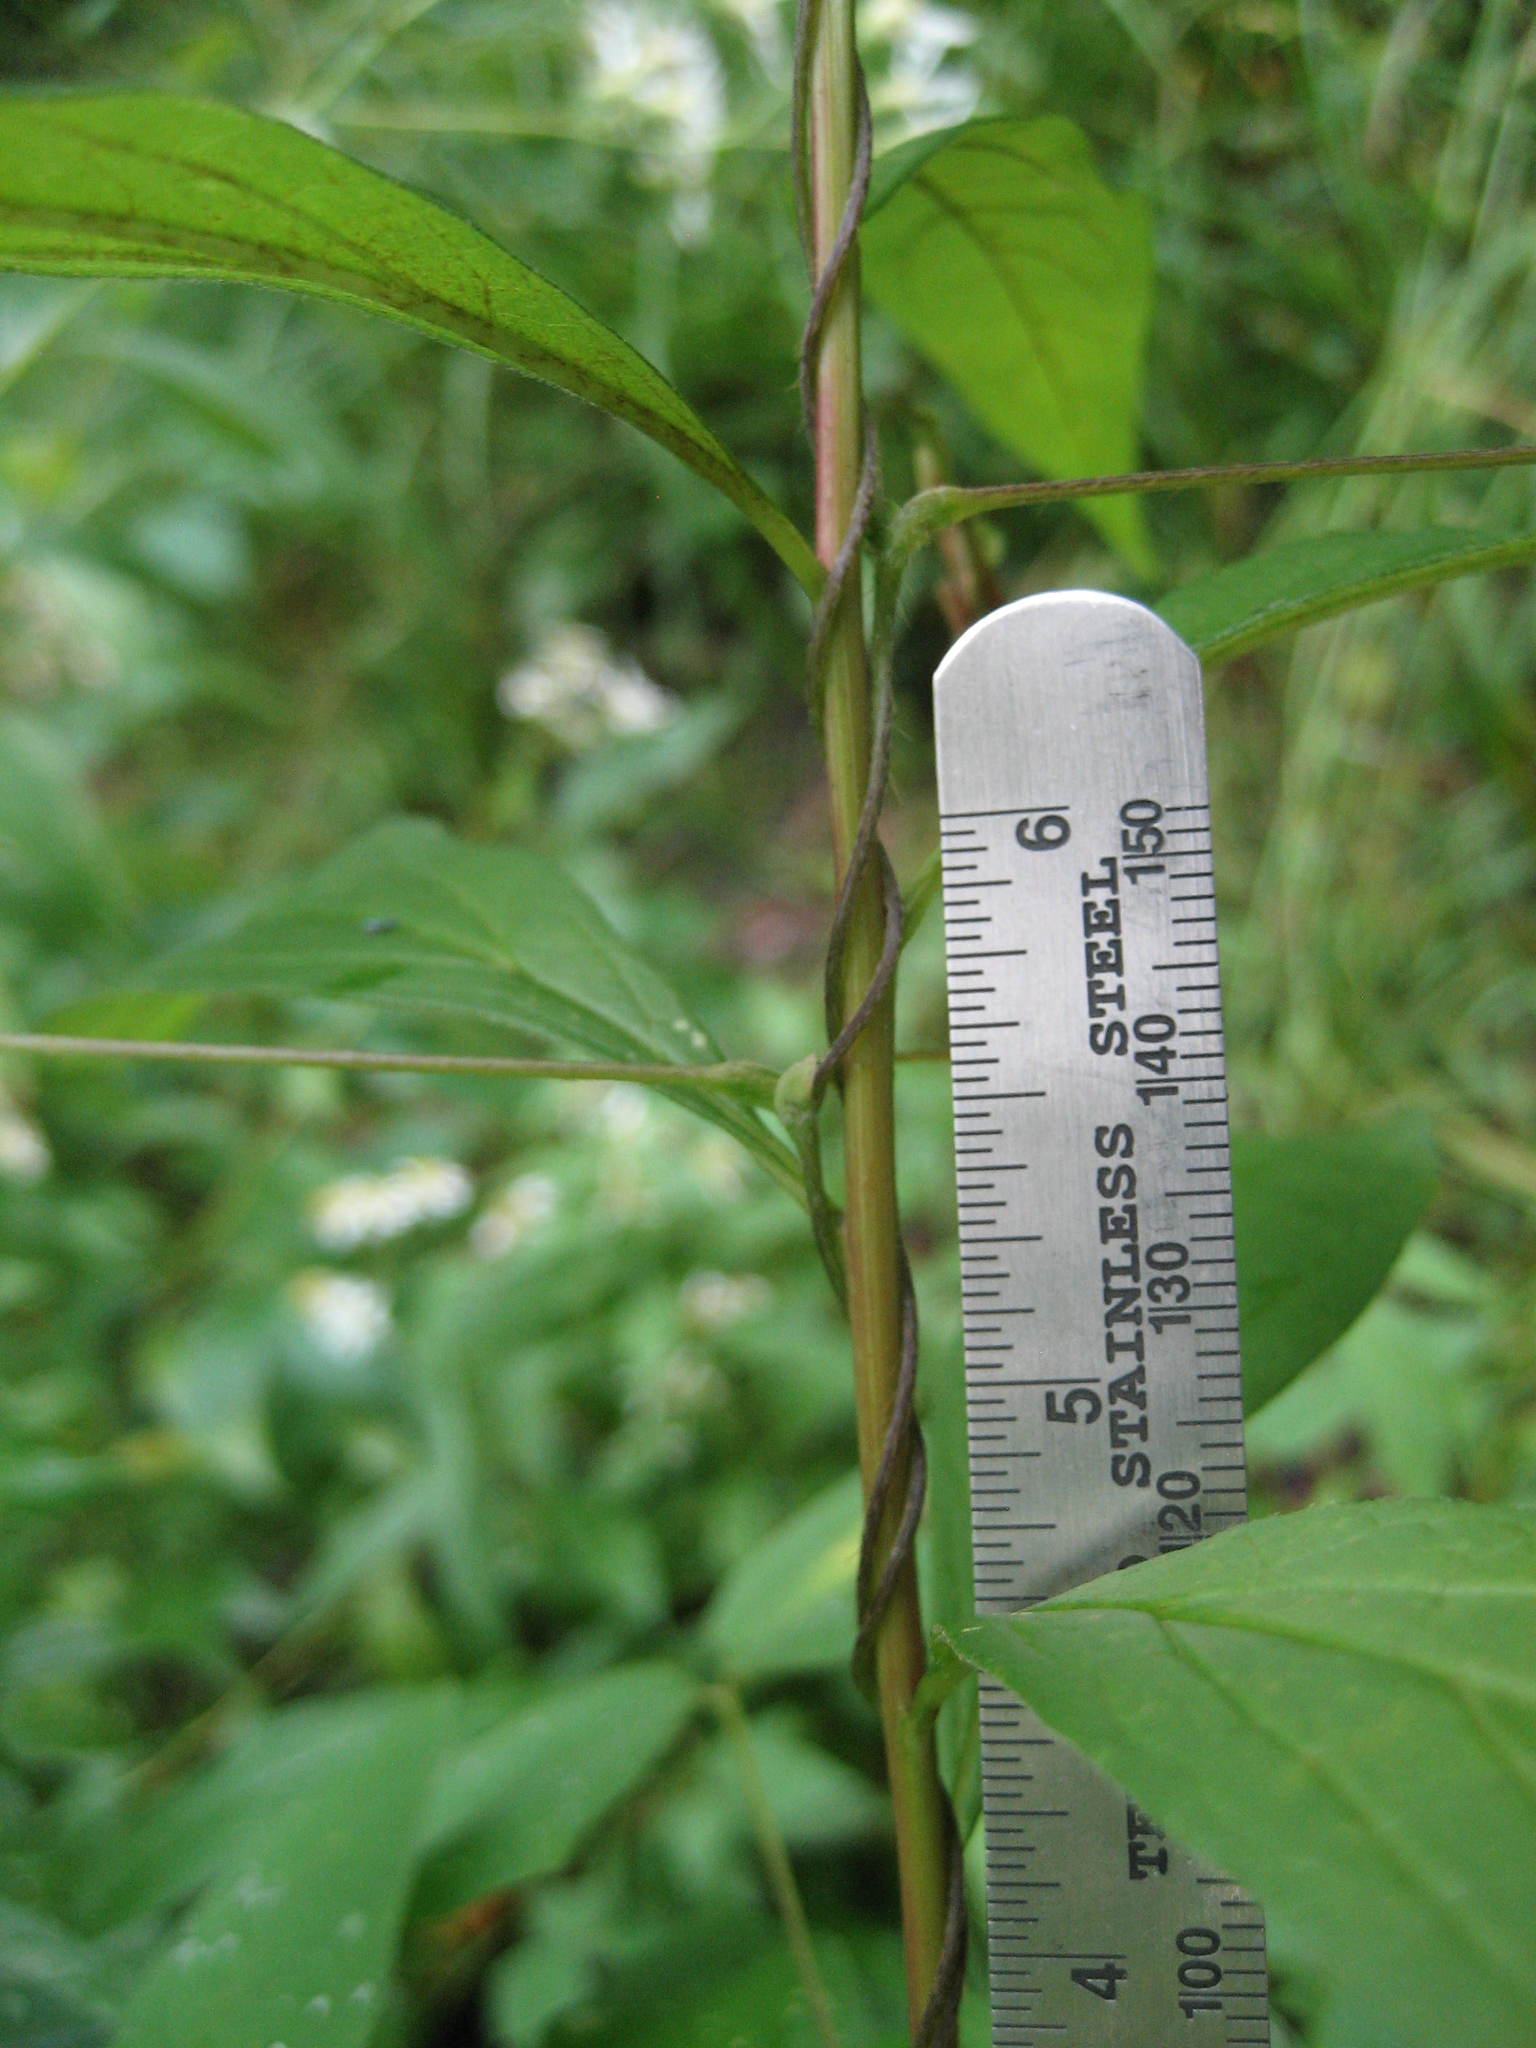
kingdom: Plantae
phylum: Tracheophyta
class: Magnoliopsida
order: Fabales
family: Fabaceae
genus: Amphicarpaea
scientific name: Amphicarpaea bracteata
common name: American hog peanut
